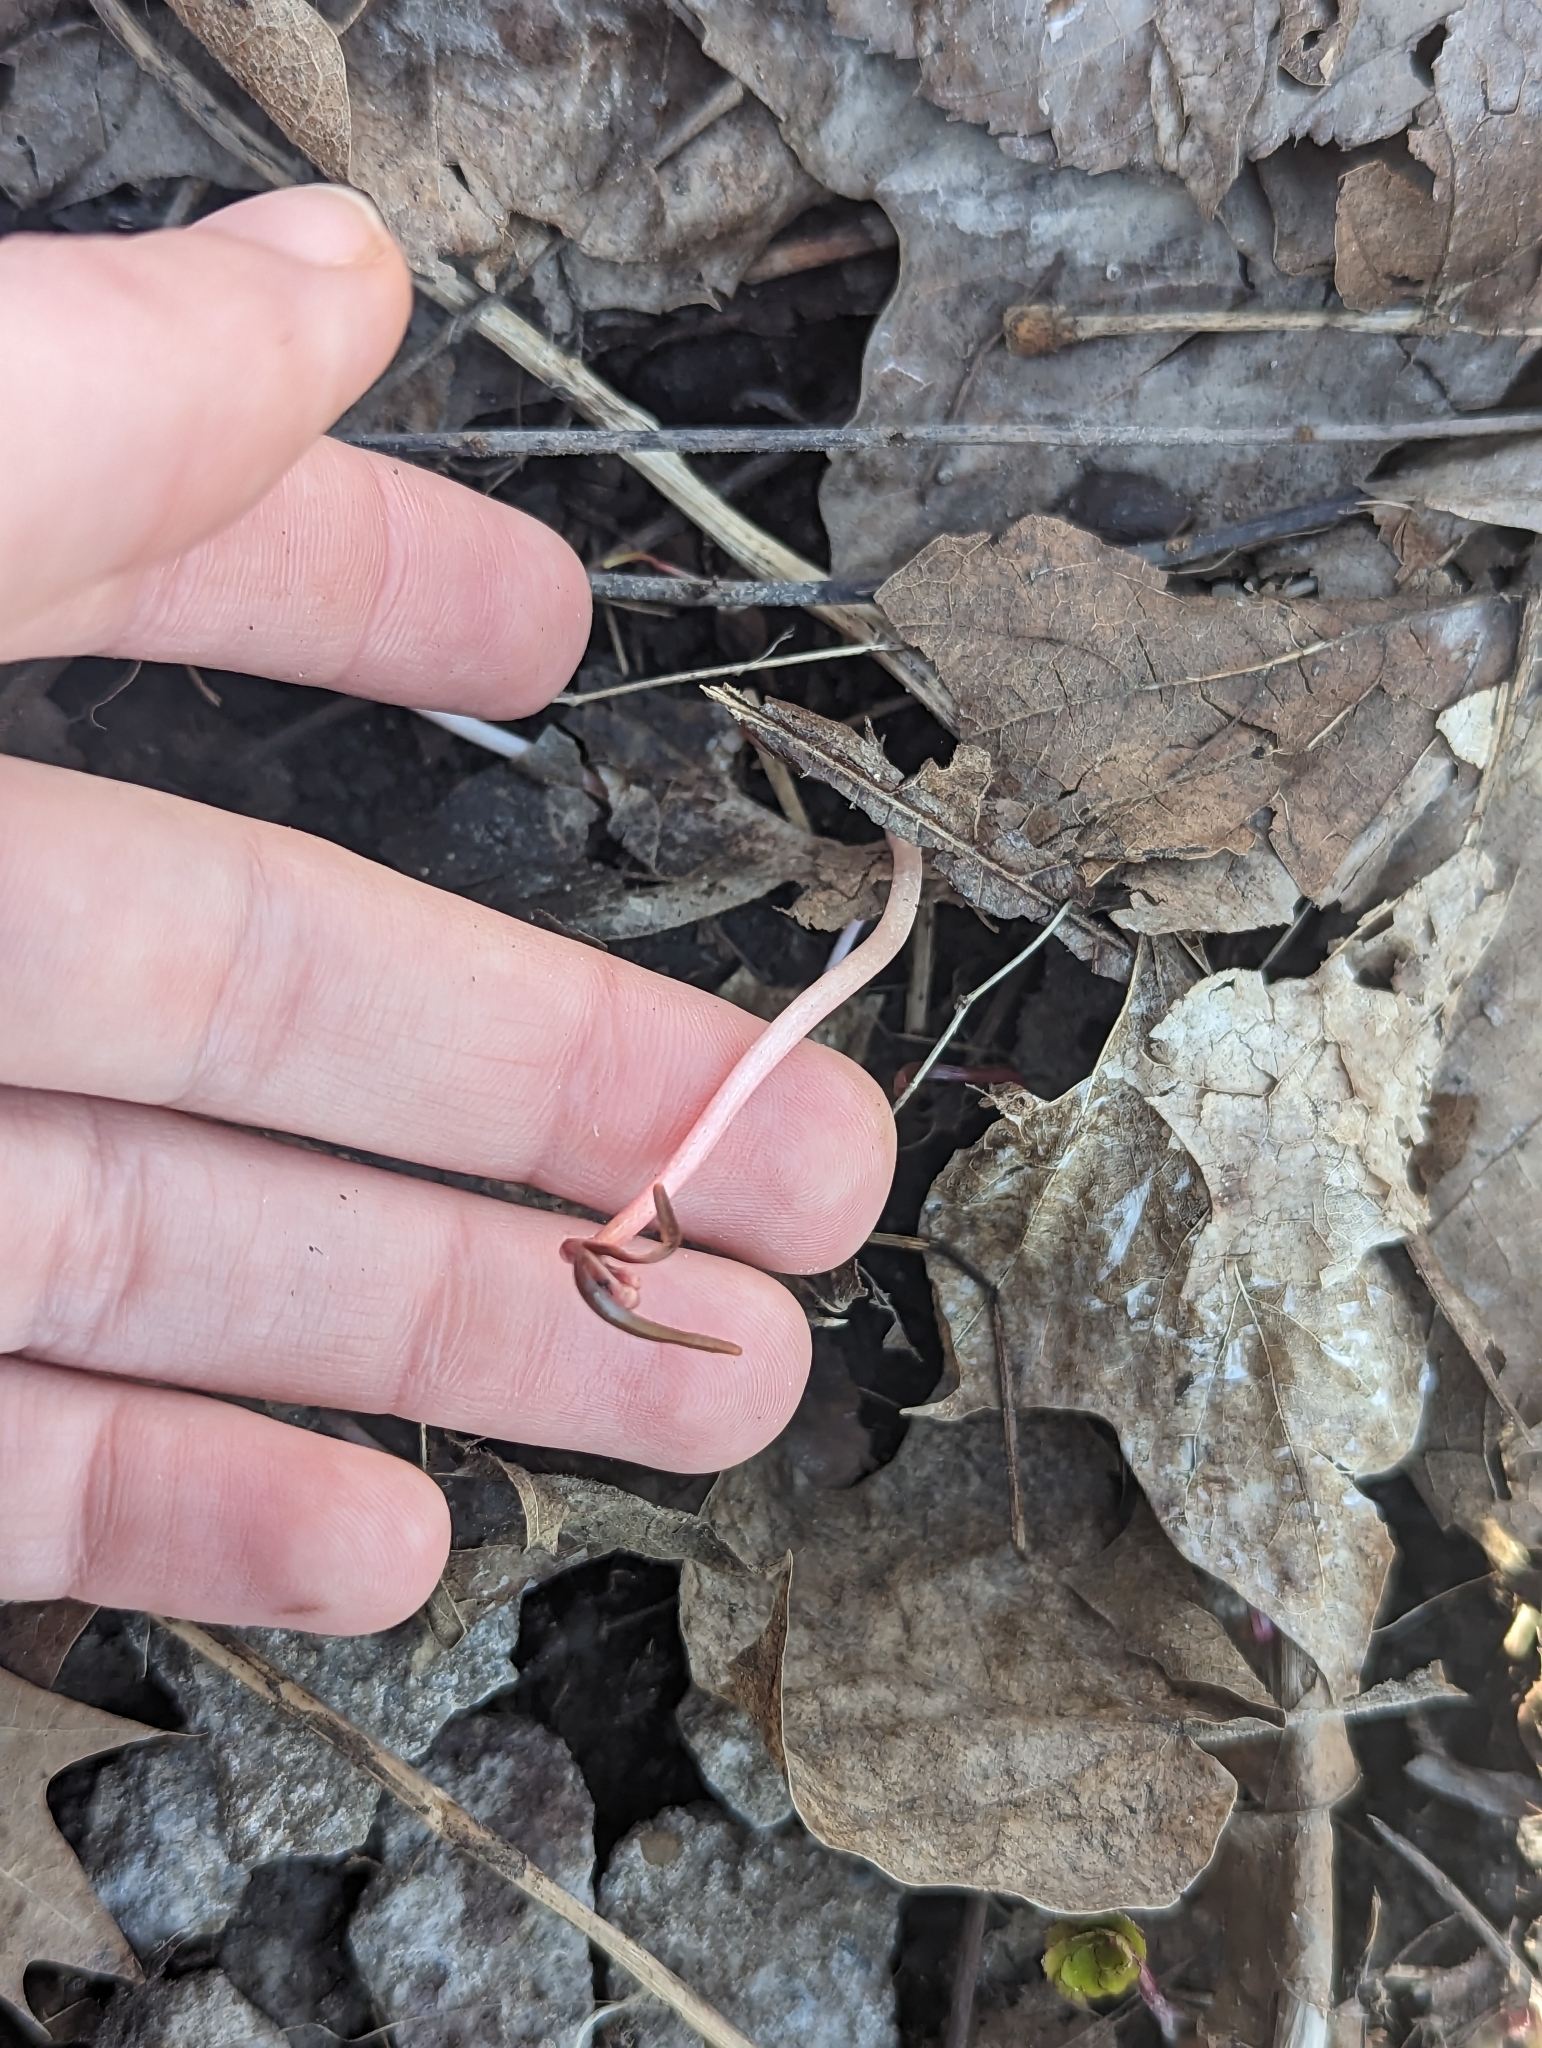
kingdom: Plantae
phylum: Tracheophyta
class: Magnoliopsida
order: Caryophyllales
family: Montiaceae
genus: Claytonia
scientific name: Claytonia virginica
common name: Virginia springbeauty
